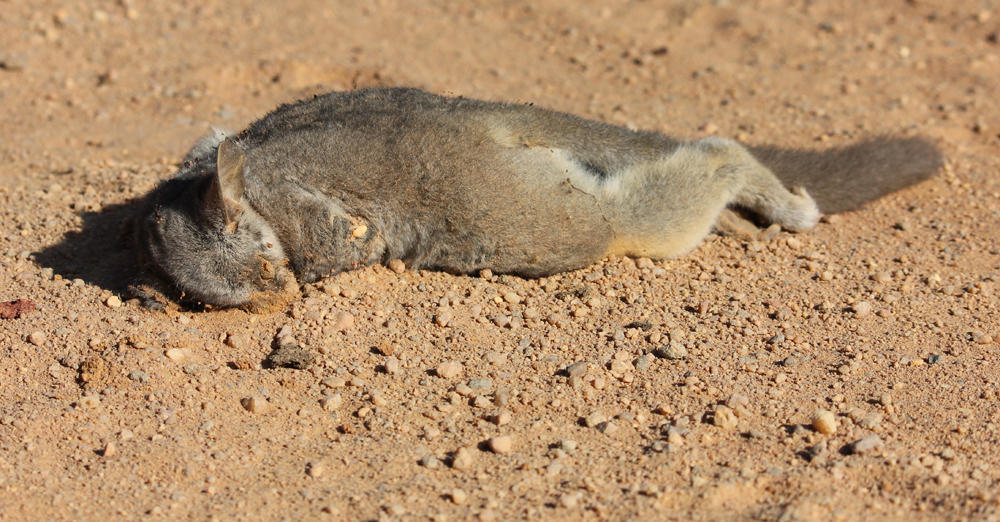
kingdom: Animalia
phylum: Chordata
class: Mammalia
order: Primates
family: Galagidae
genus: Galago
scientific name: Galago moholi
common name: Moholi bushbaby
